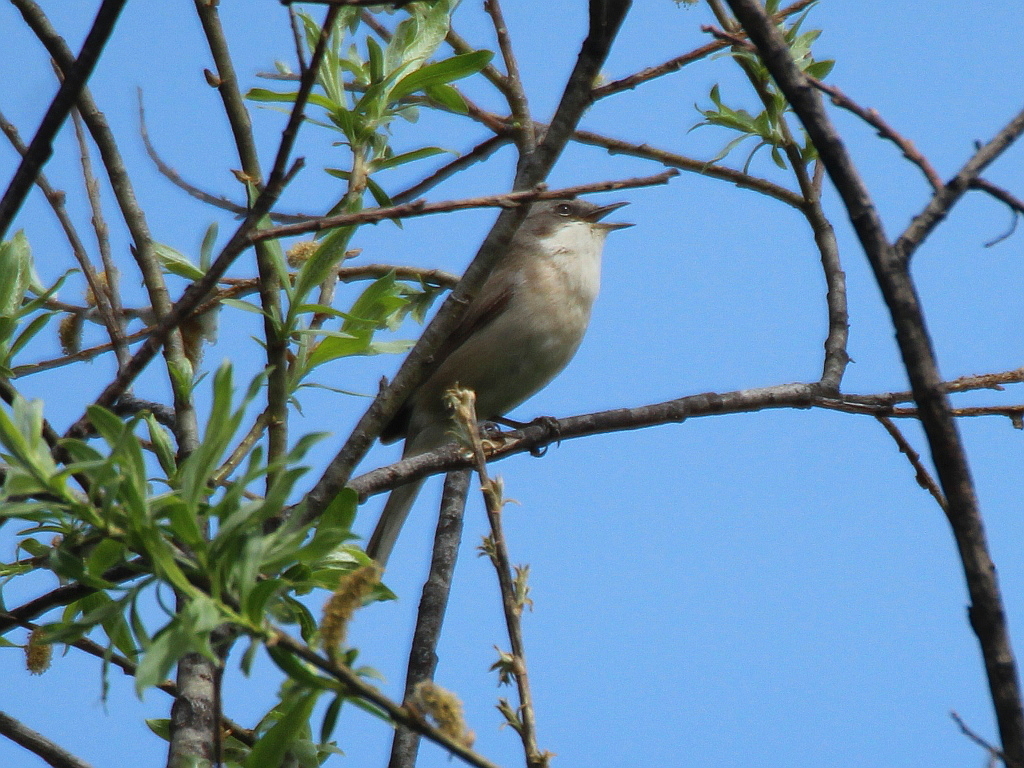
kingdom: Animalia
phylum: Chordata
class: Aves
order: Passeriformes
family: Sylviidae
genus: Sylvia
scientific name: Sylvia curruca
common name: Lesser whitethroat
